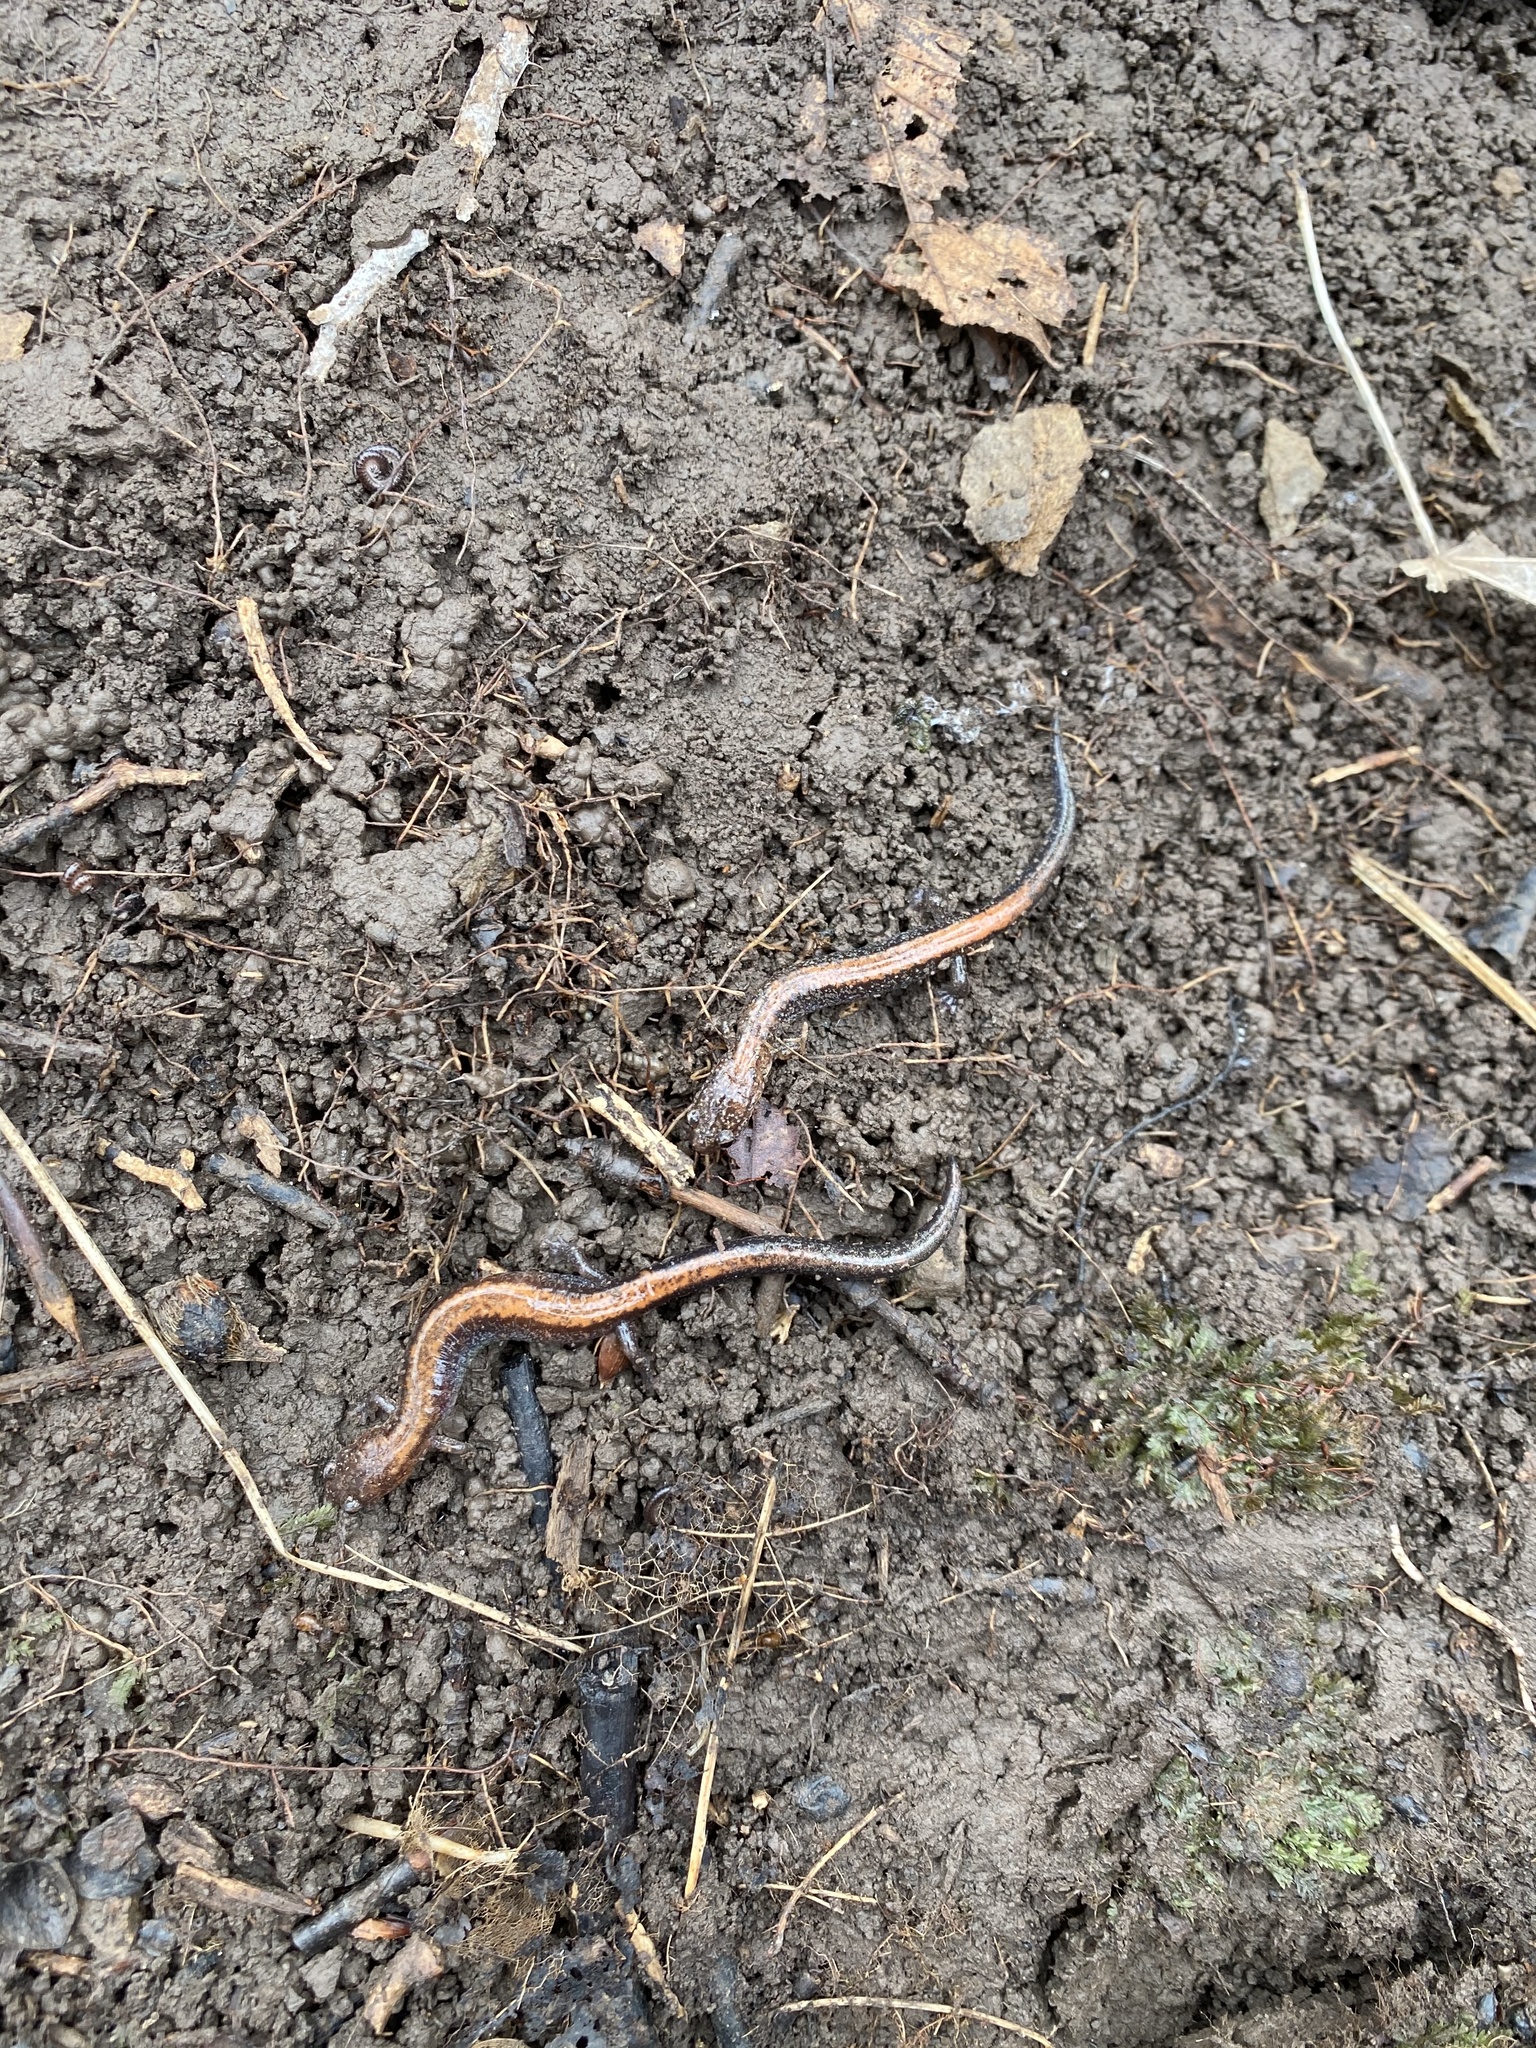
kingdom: Animalia
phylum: Chordata
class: Amphibia
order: Caudata
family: Plethodontidae
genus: Plethodon
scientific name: Plethodon cinereus
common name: Redback salamander
